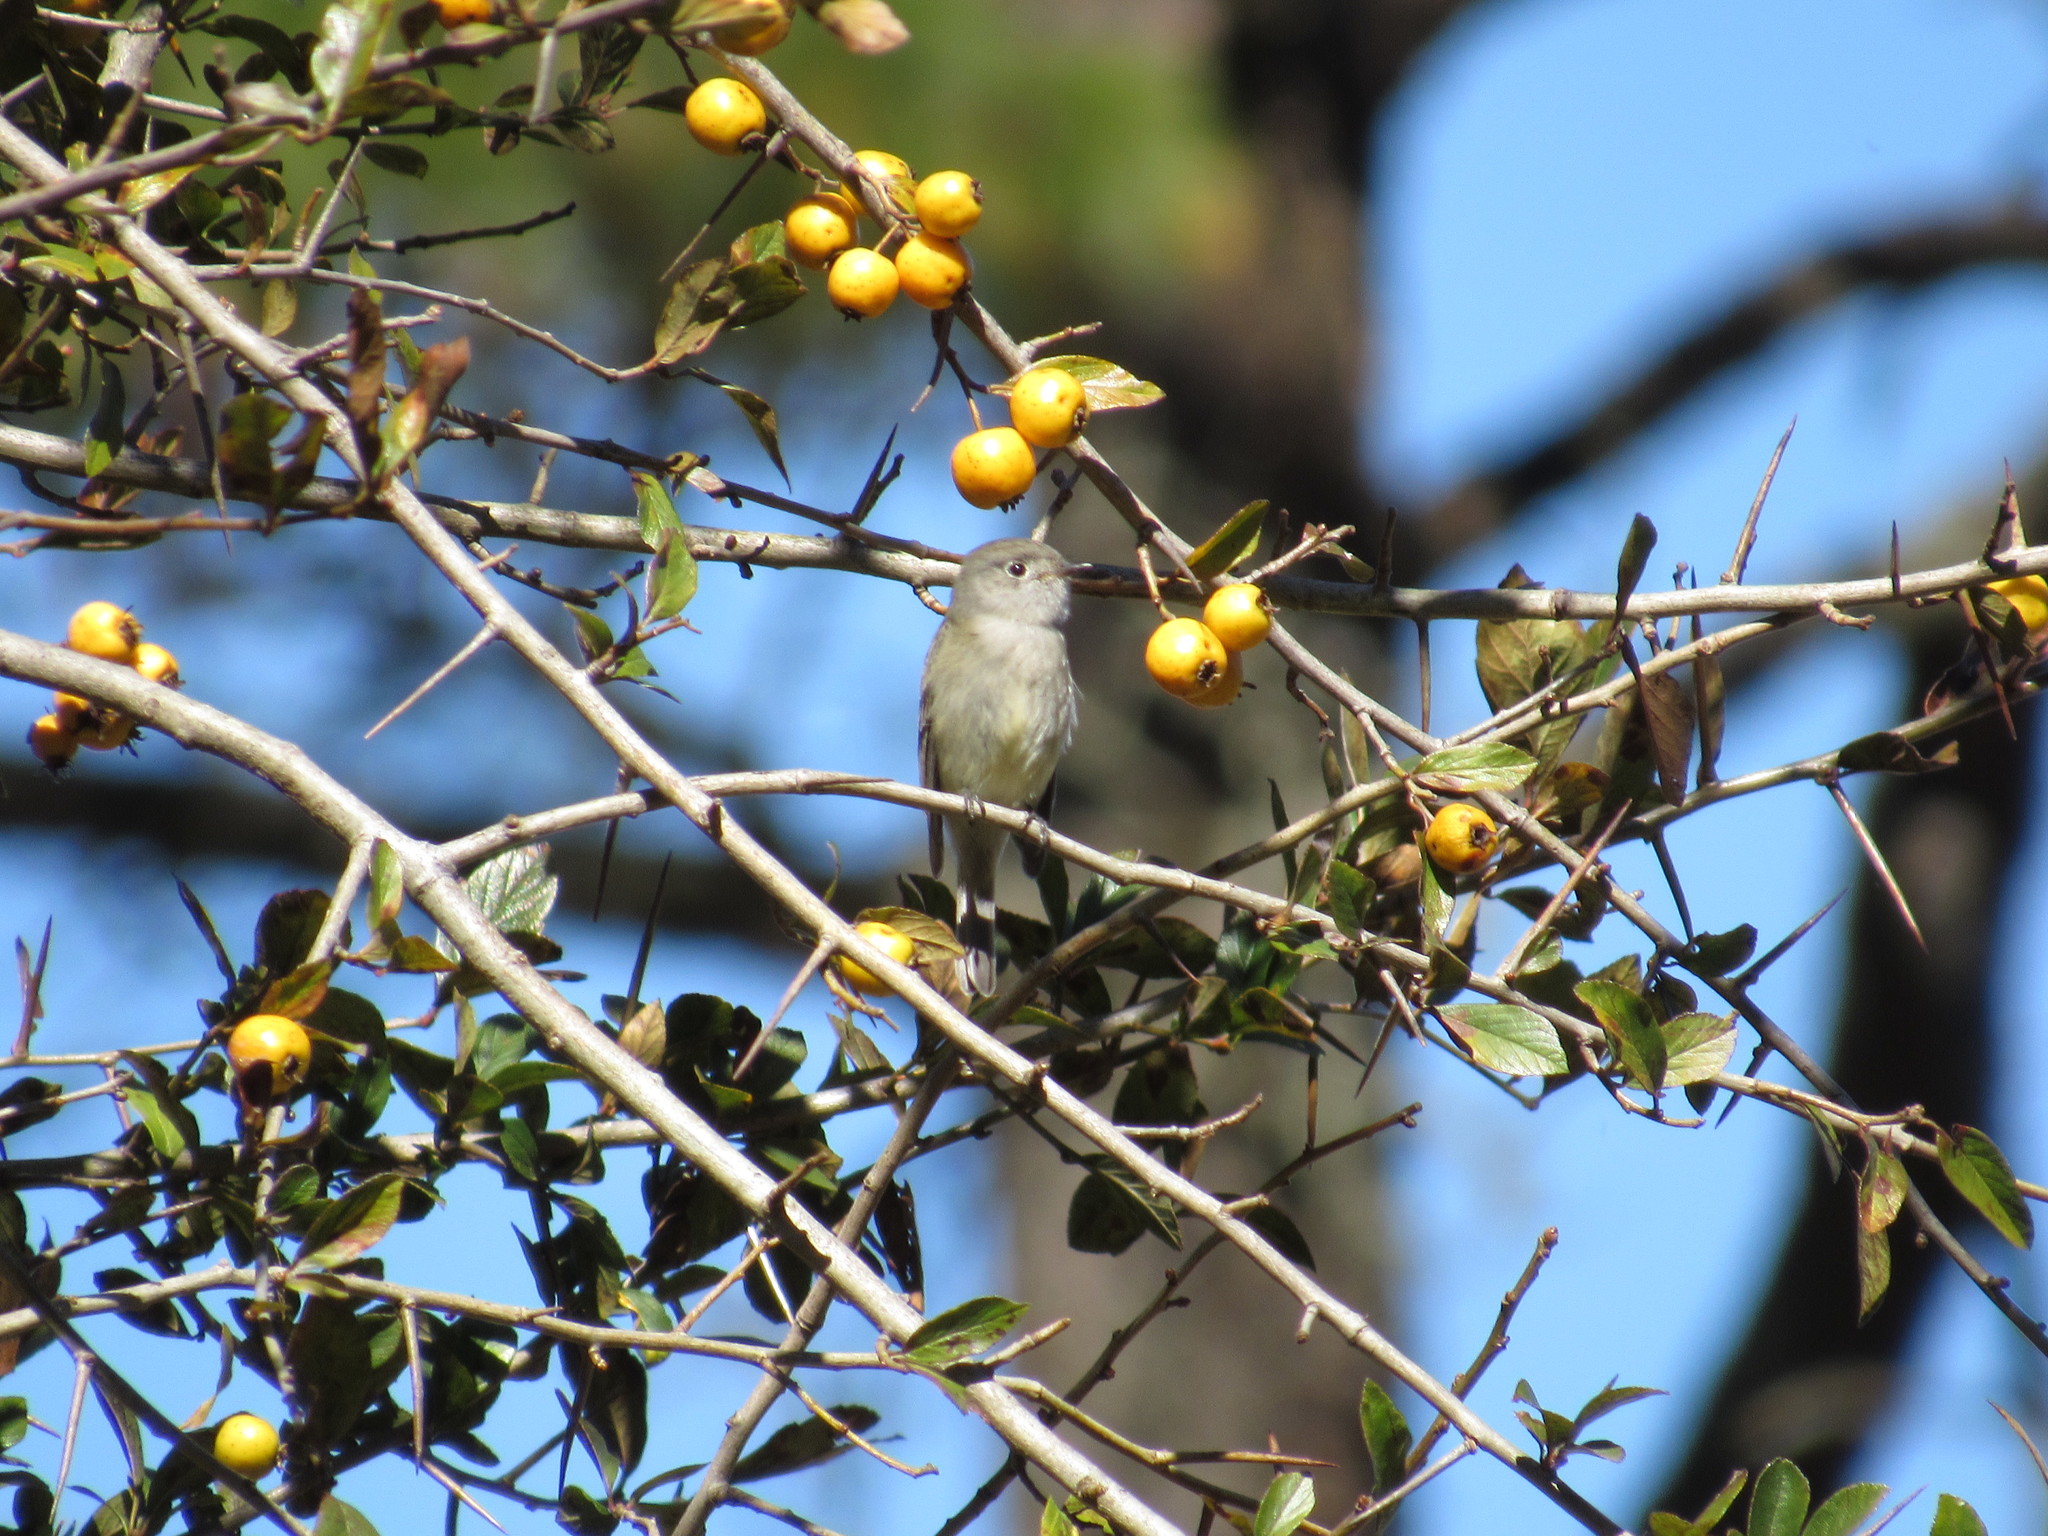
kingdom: Animalia
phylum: Chordata
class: Aves
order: Passeriformes
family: Tyrannidae
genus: Empidonax
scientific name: Empidonax hammondii
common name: Hammond's flycatcher
